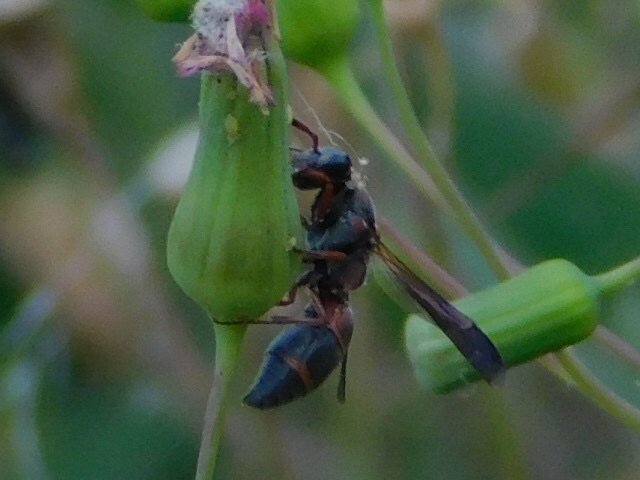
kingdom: Animalia
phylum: Arthropoda
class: Insecta
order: Hymenoptera
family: Eumenidae
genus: Pachodynerus
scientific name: Pachodynerus erynnis
